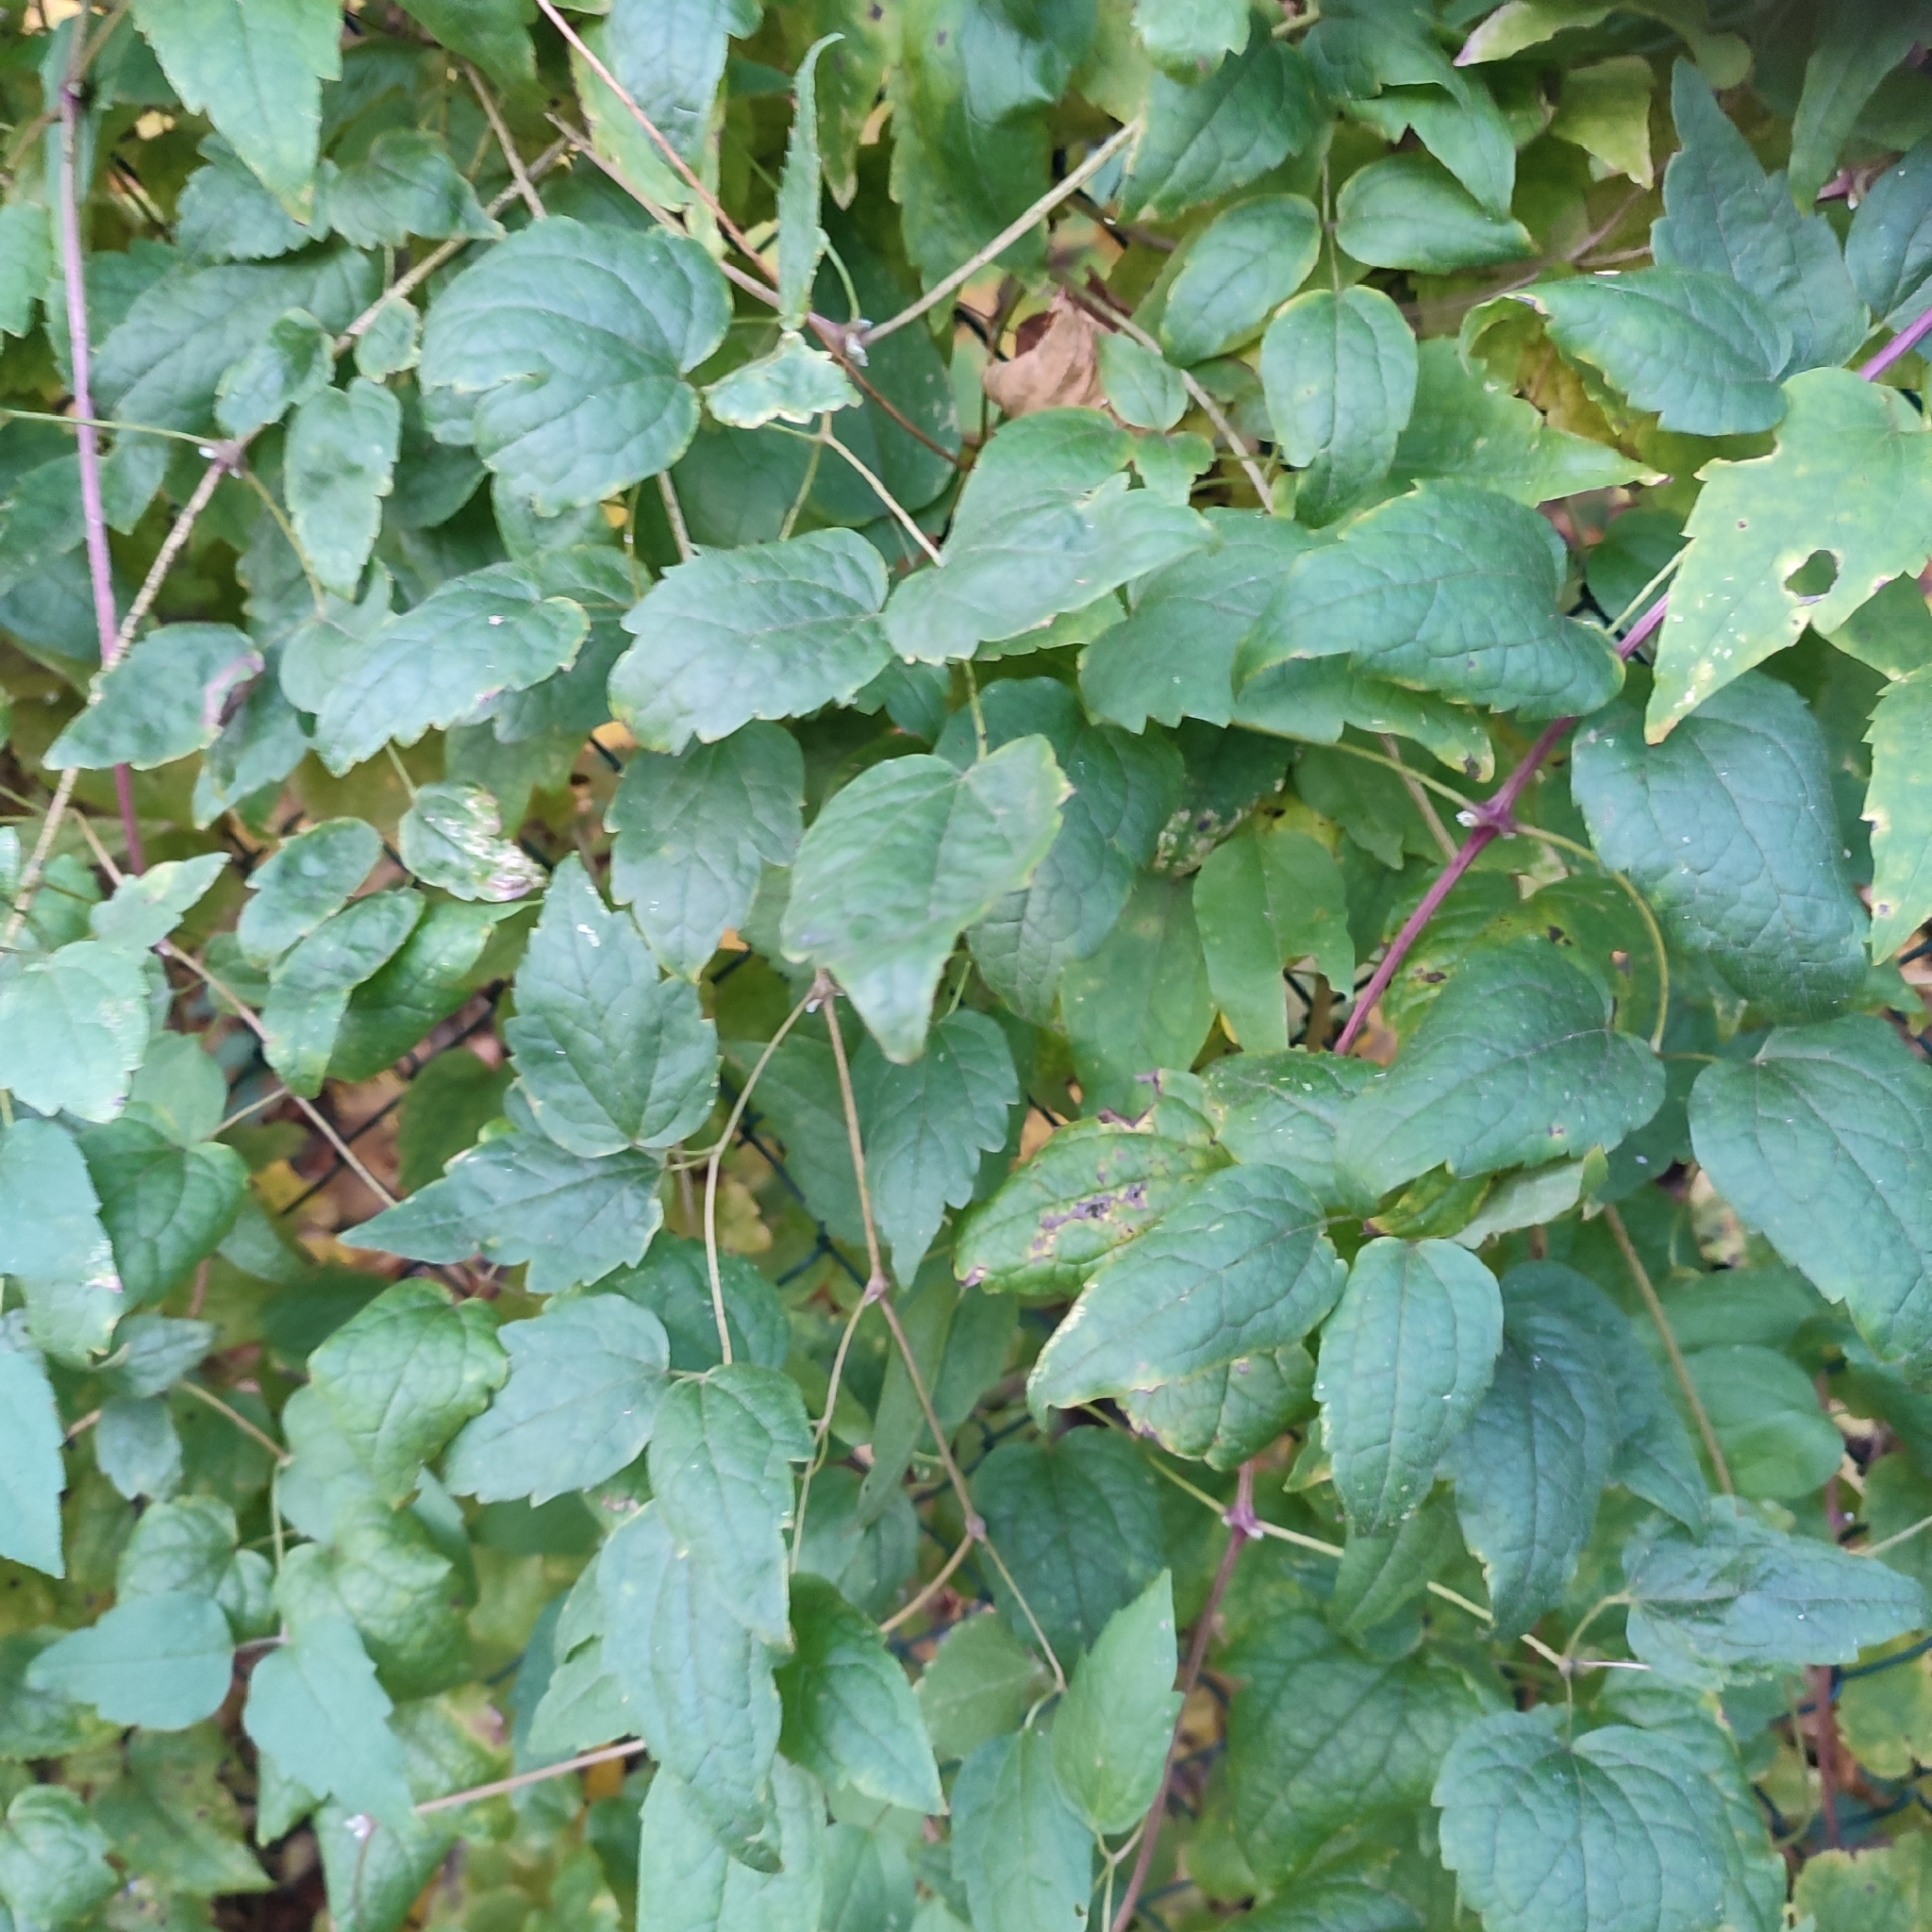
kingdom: Plantae
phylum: Tracheophyta
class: Magnoliopsida
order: Ranunculales
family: Ranunculaceae
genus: Clematis
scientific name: Clematis vitalba
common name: Evergreen clematis
